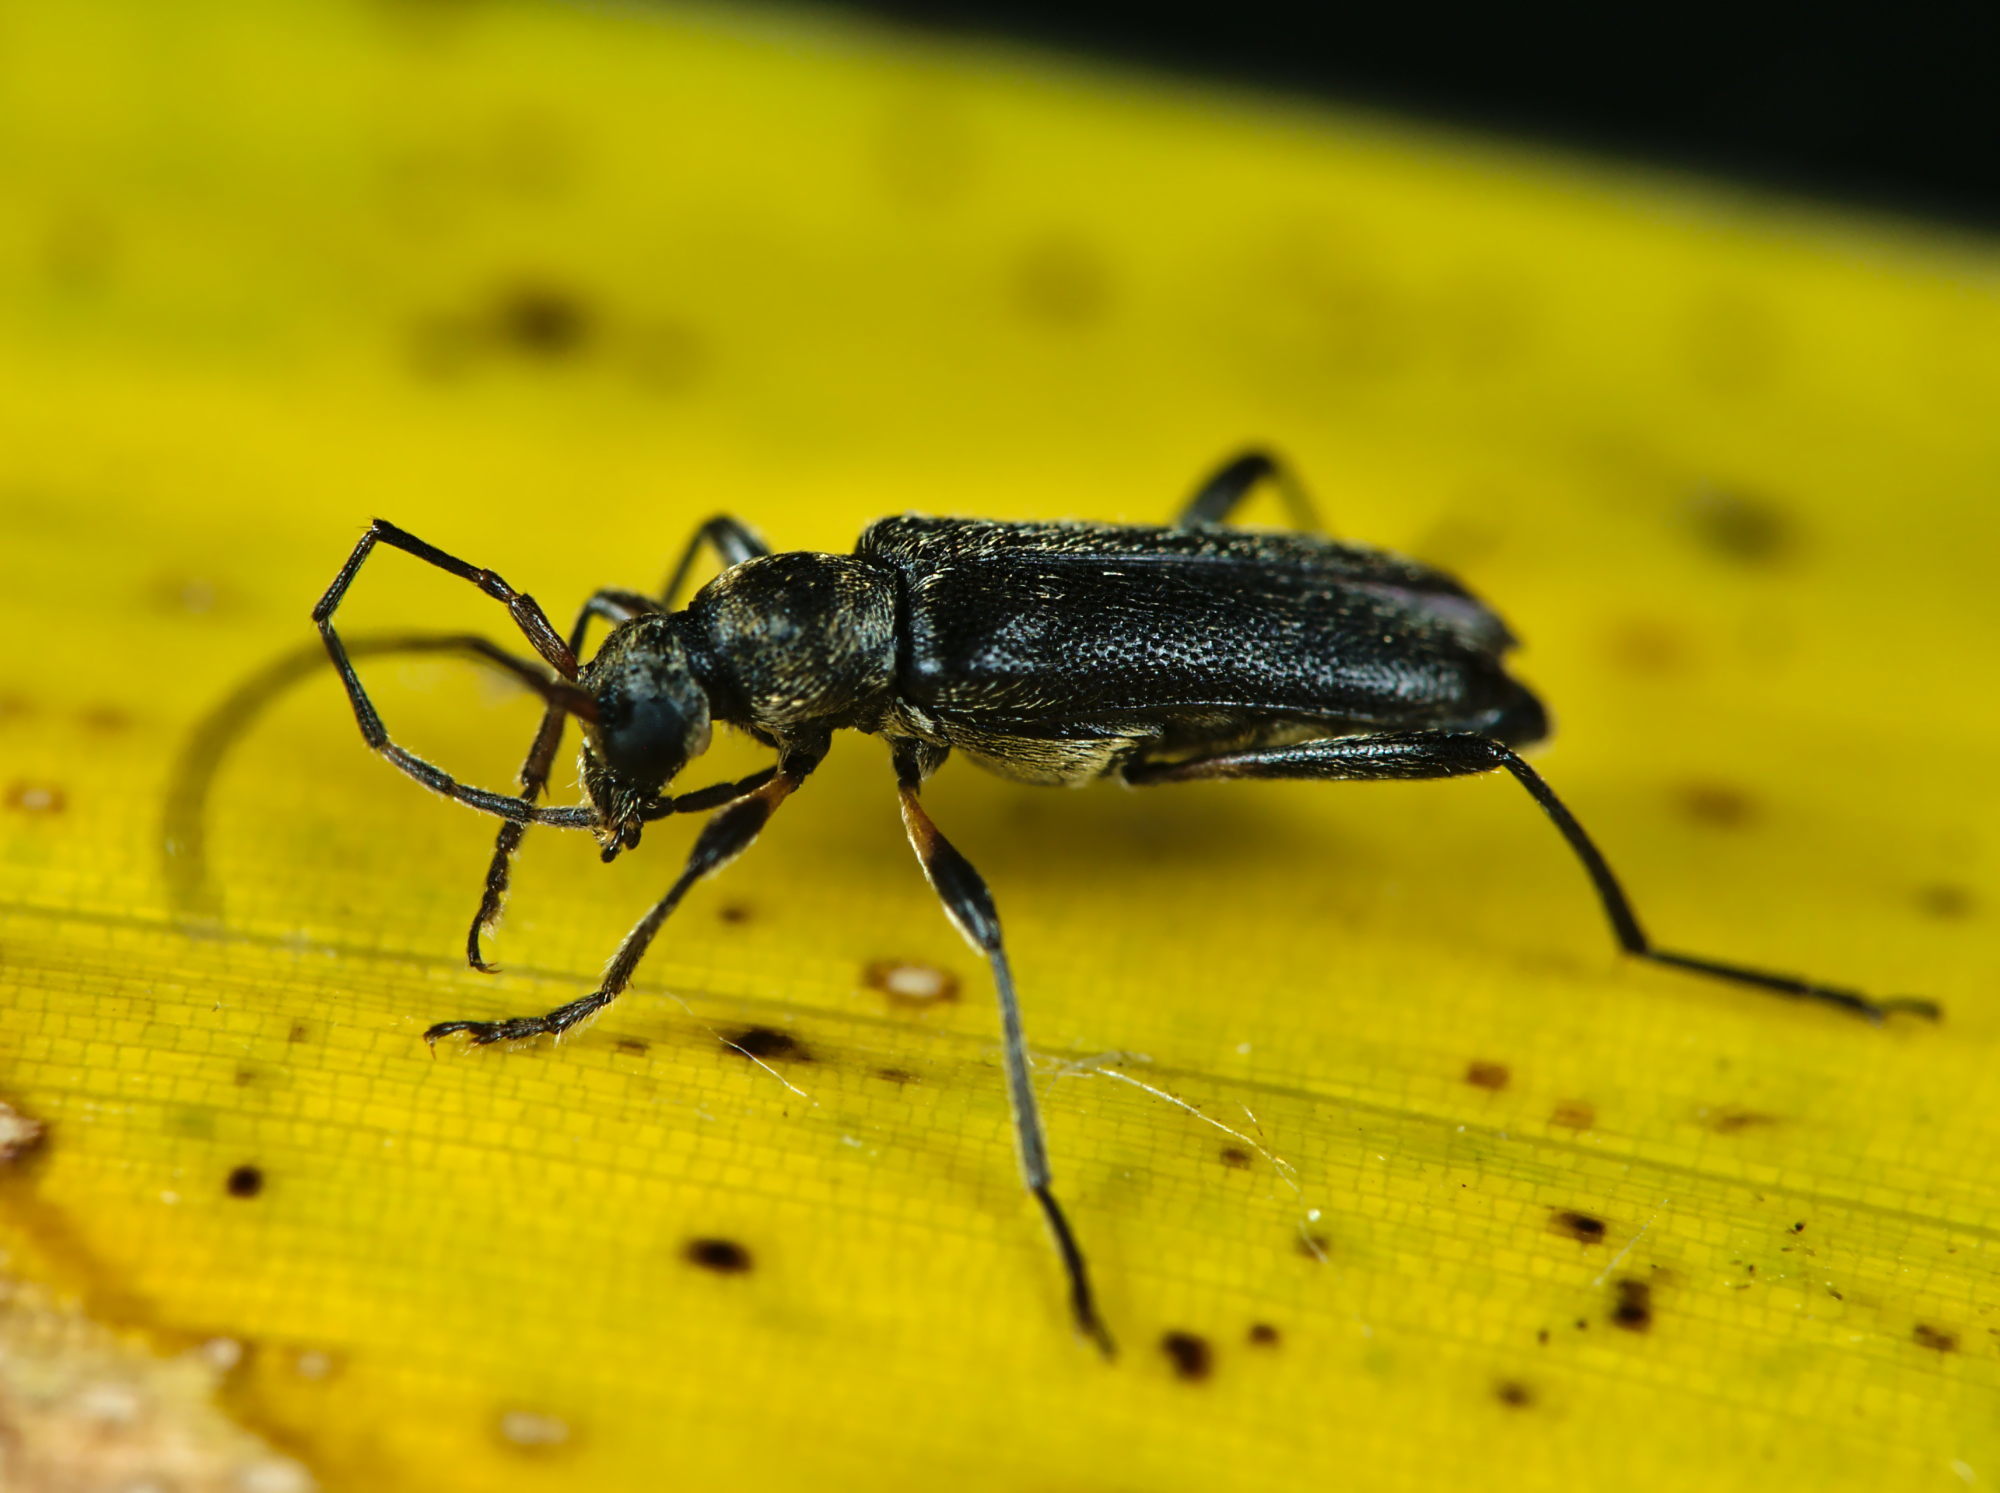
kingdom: Animalia
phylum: Arthropoda
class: Insecta
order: Coleoptera
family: Cerambycidae
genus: Grammoptera
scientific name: Grammoptera ruficornis
